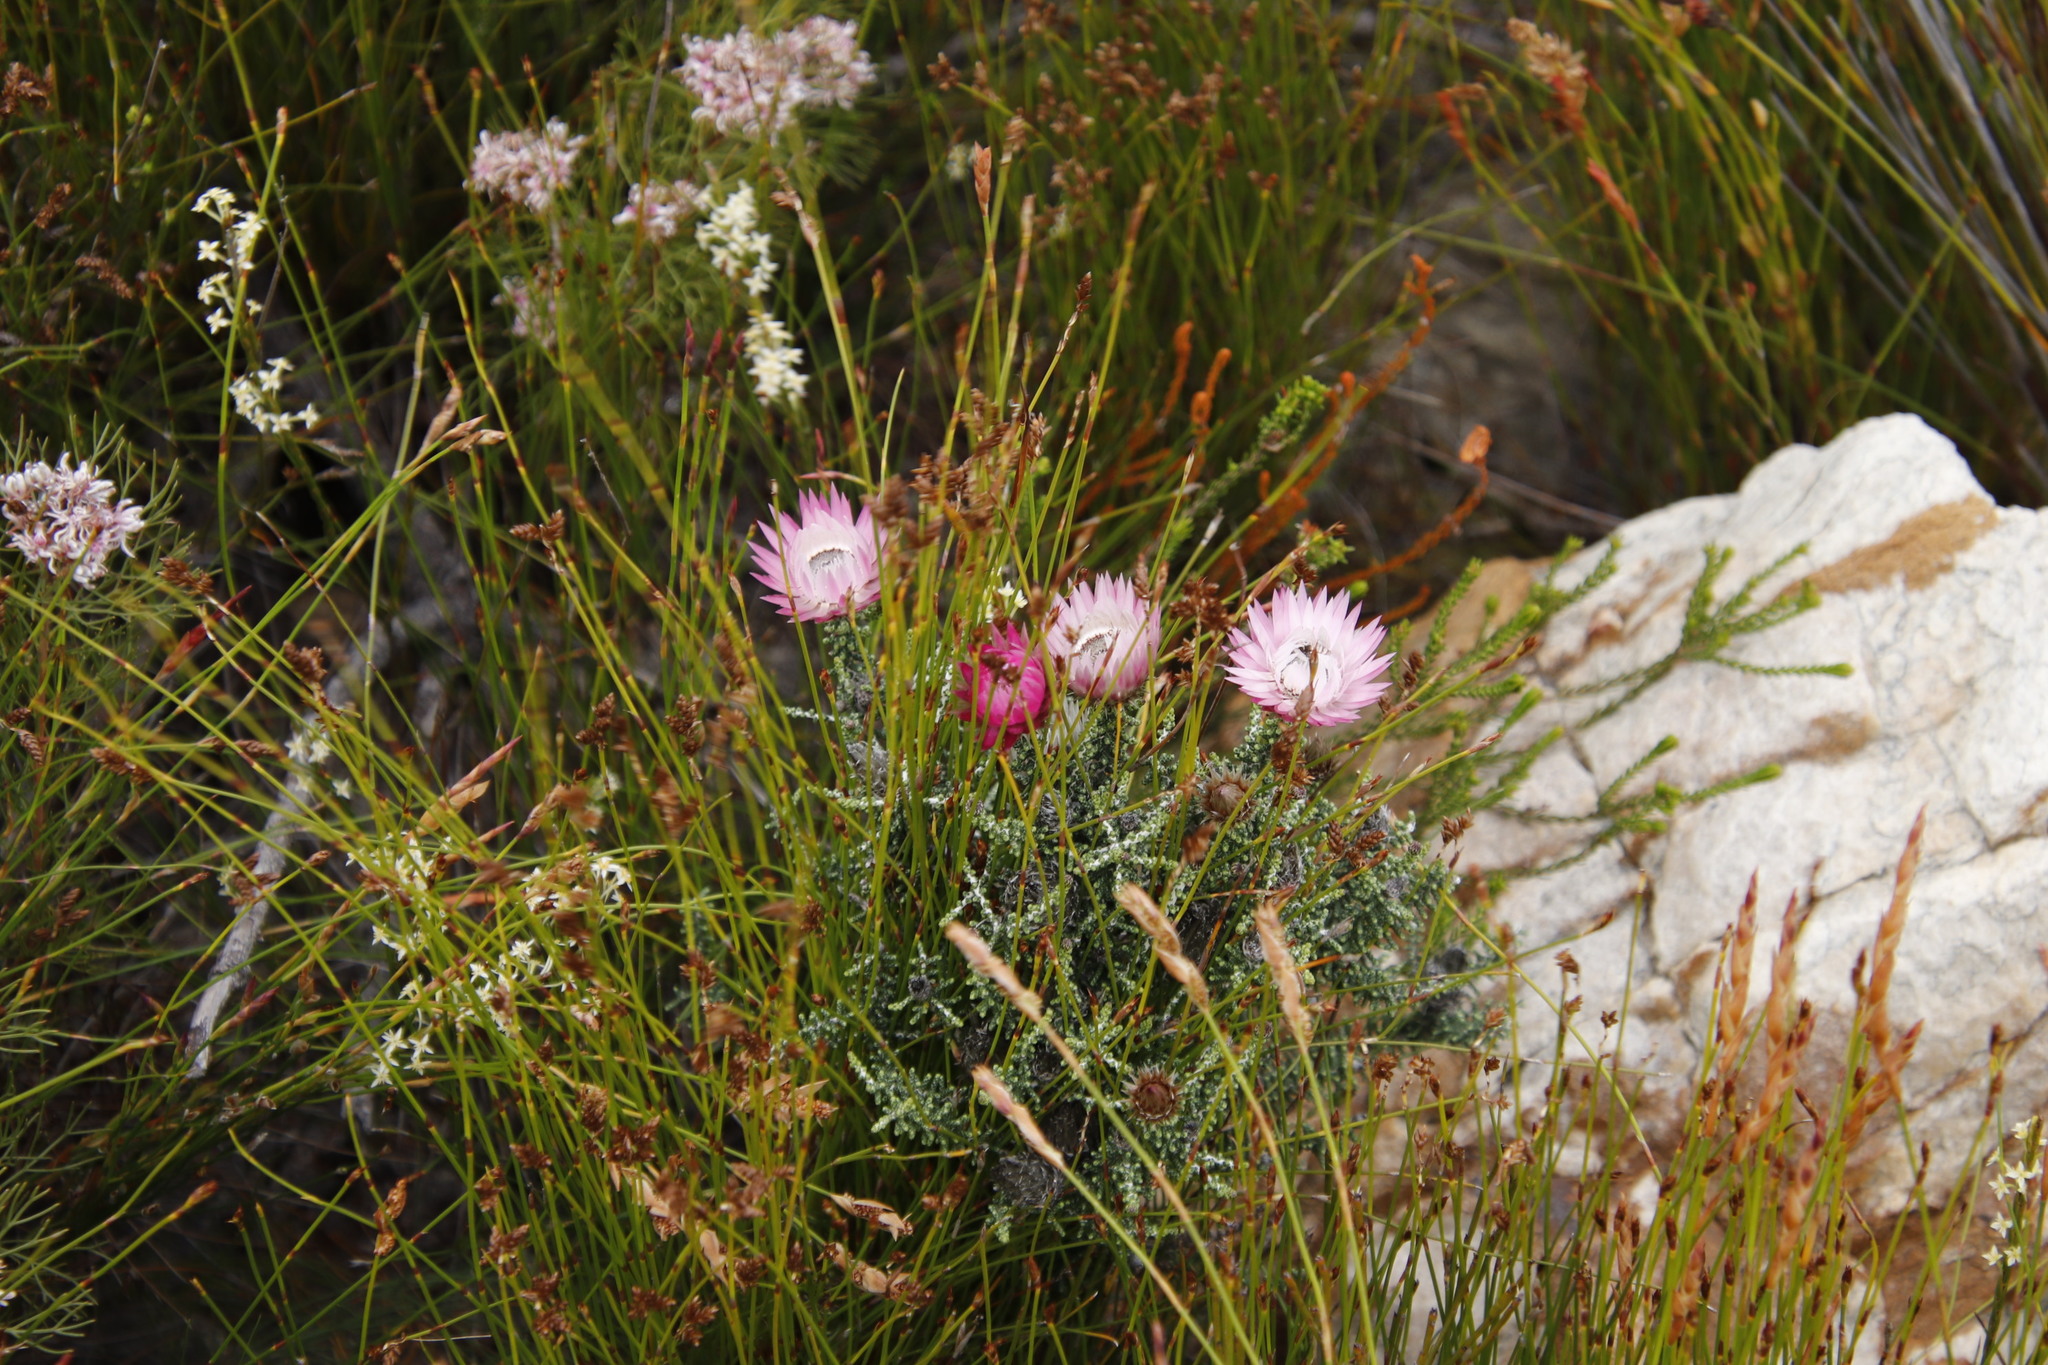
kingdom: Plantae
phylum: Tracheophyta
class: Magnoliopsida
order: Asterales
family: Asteraceae
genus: Phaenocoma
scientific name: Phaenocoma prolifera
